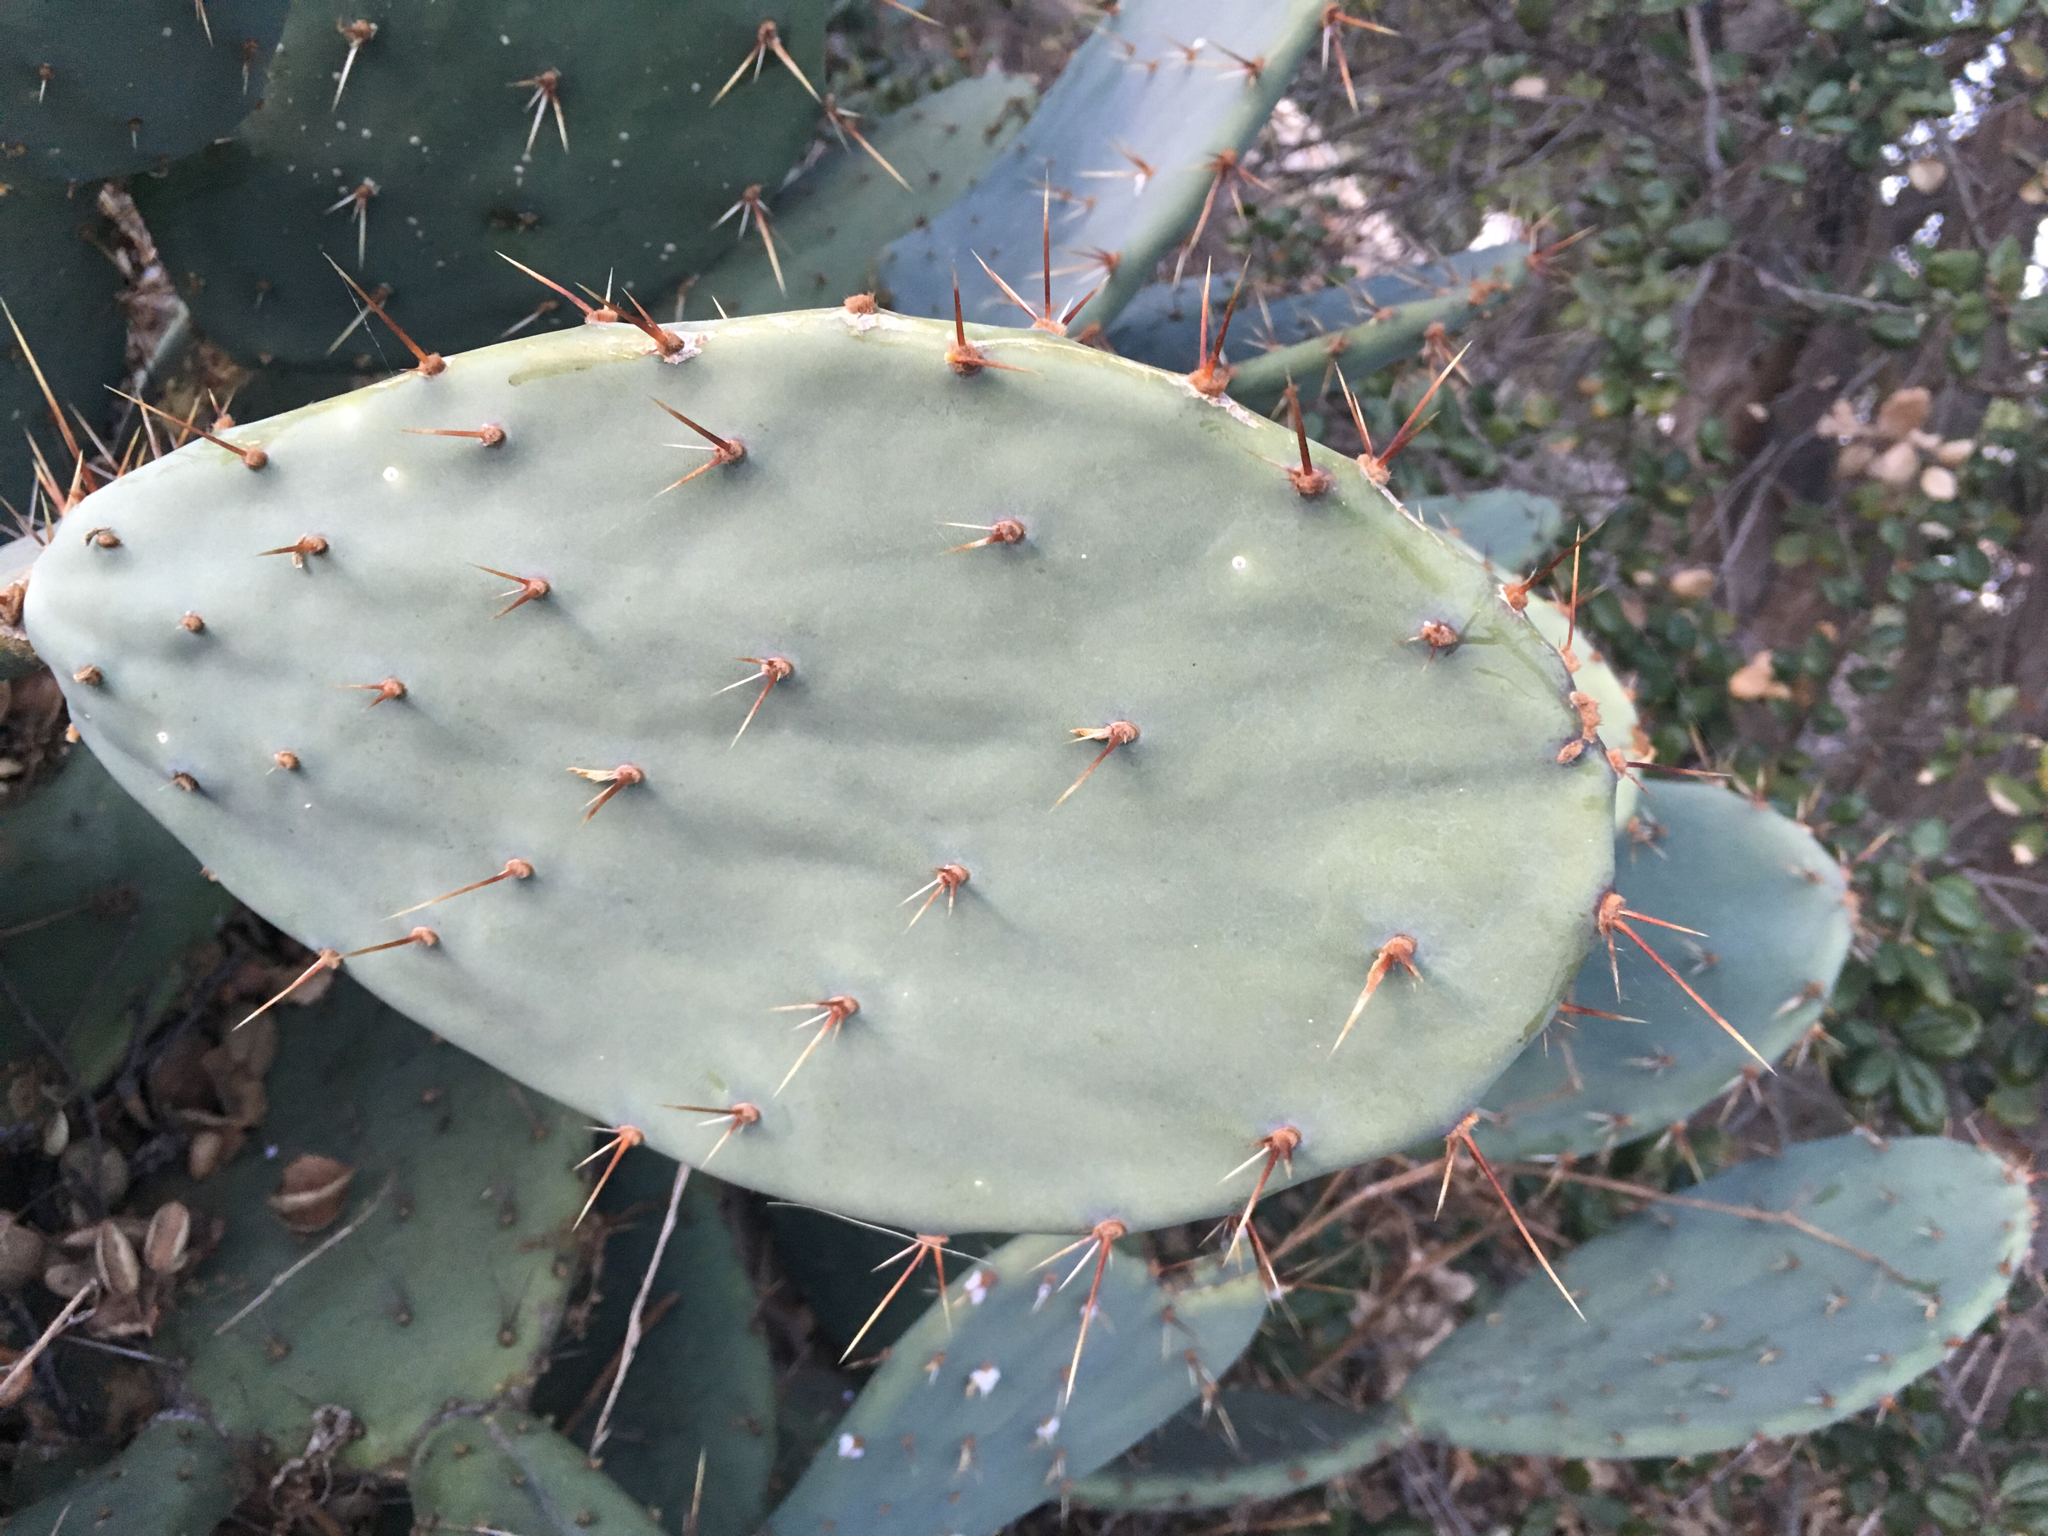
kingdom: Plantae
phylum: Tracheophyta
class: Magnoliopsida
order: Caryophyllales
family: Cactaceae
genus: Opuntia
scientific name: Opuntia littoralis
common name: Coastal prickly-pear
